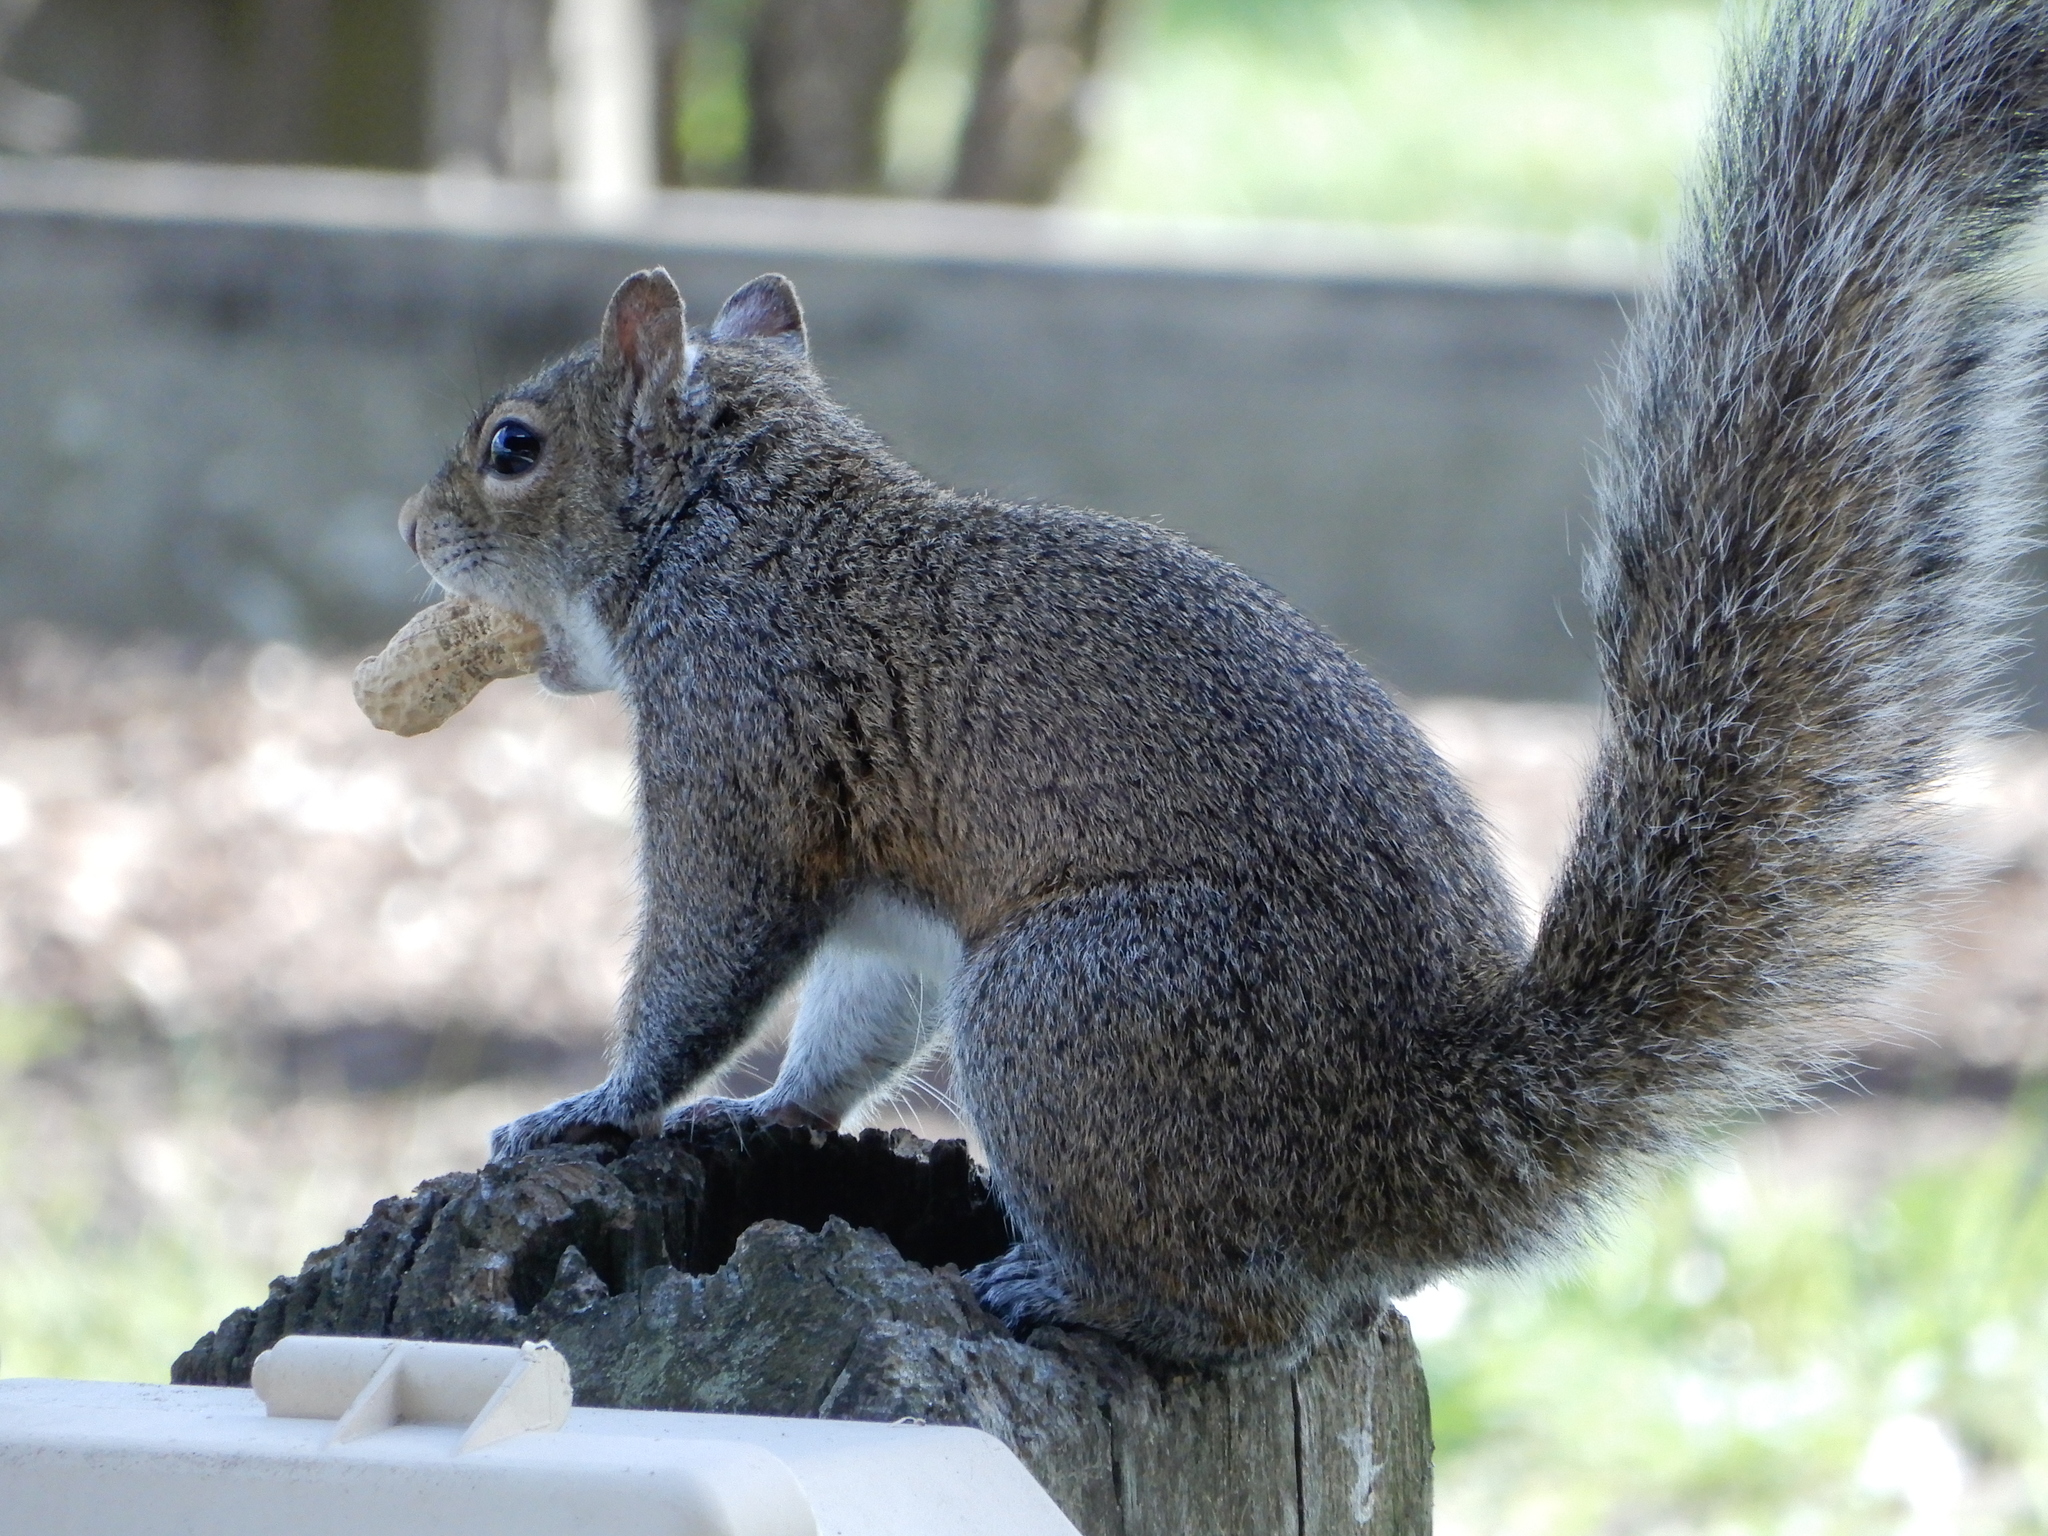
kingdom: Animalia
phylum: Chordata
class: Mammalia
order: Rodentia
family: Sciuridae
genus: Sciurus
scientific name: Sciurus carolinensis
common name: Eastern gray squirrel
